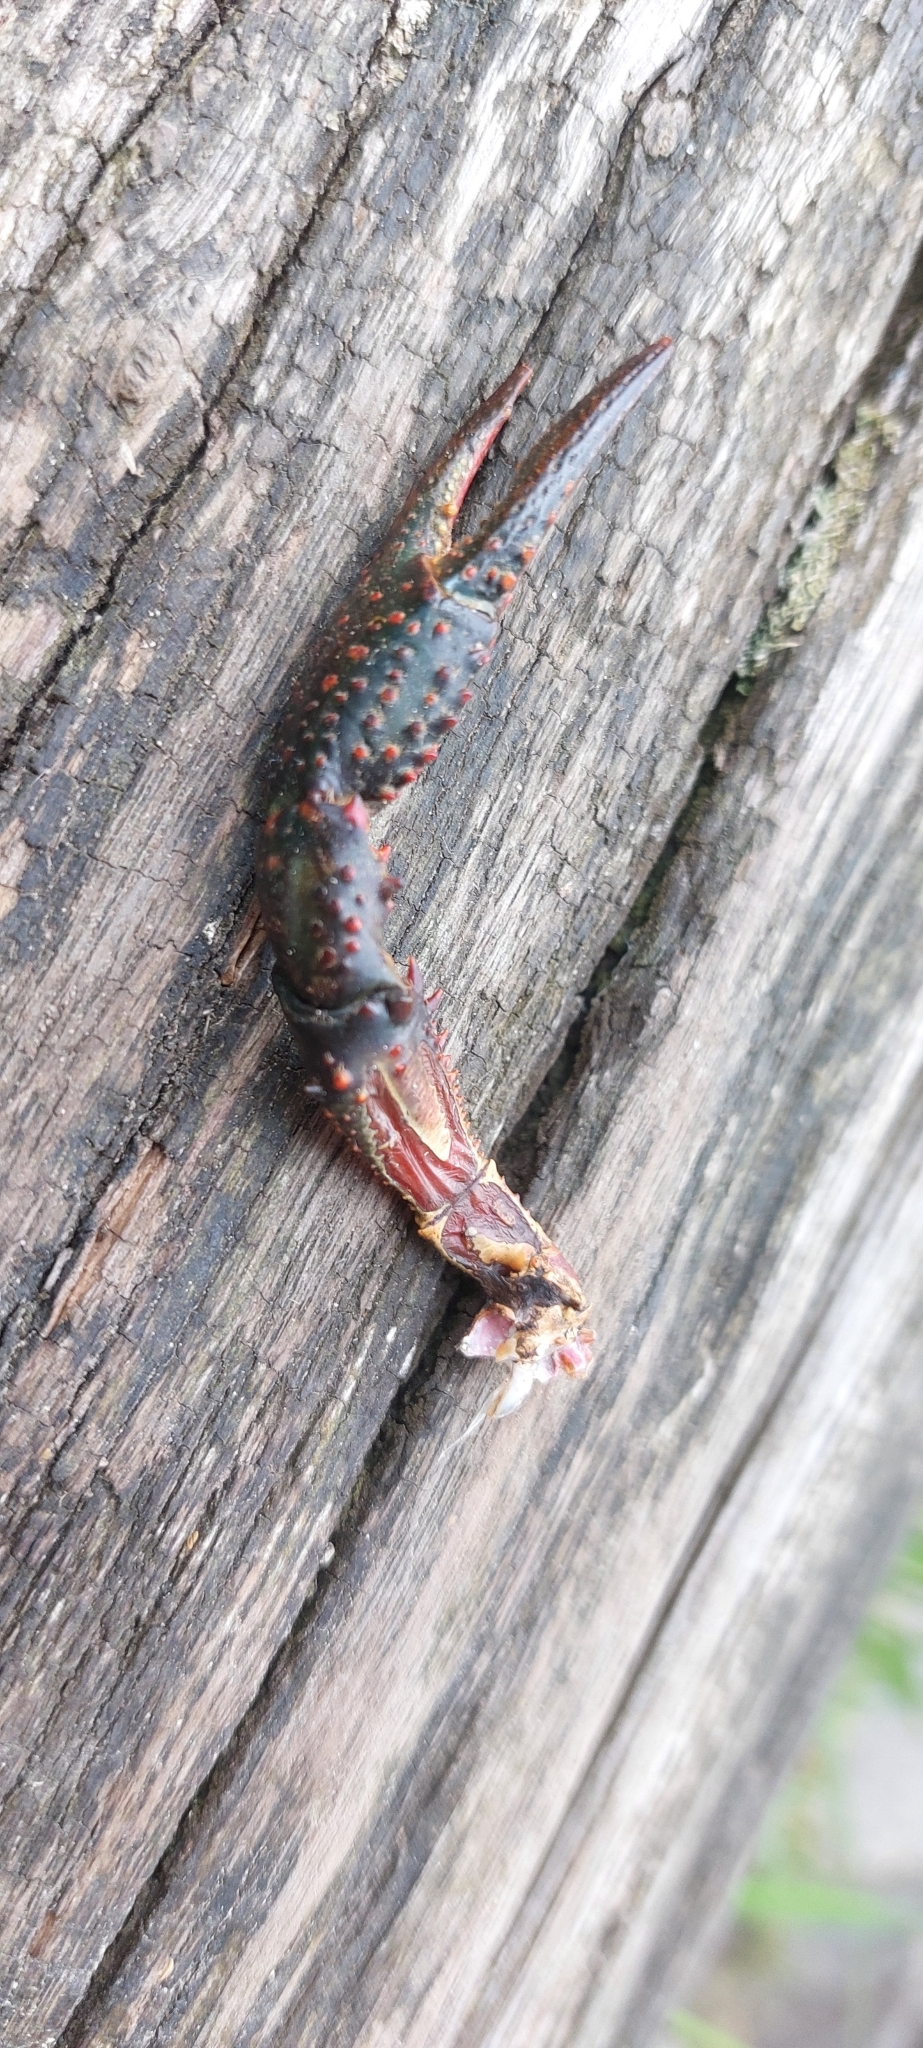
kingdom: Animalia
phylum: Arthropoda
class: Malacostraca
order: Decapoda
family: Cambaridae
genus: Procambarus
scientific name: Procambarus clarkii
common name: Red swamp crayfish
